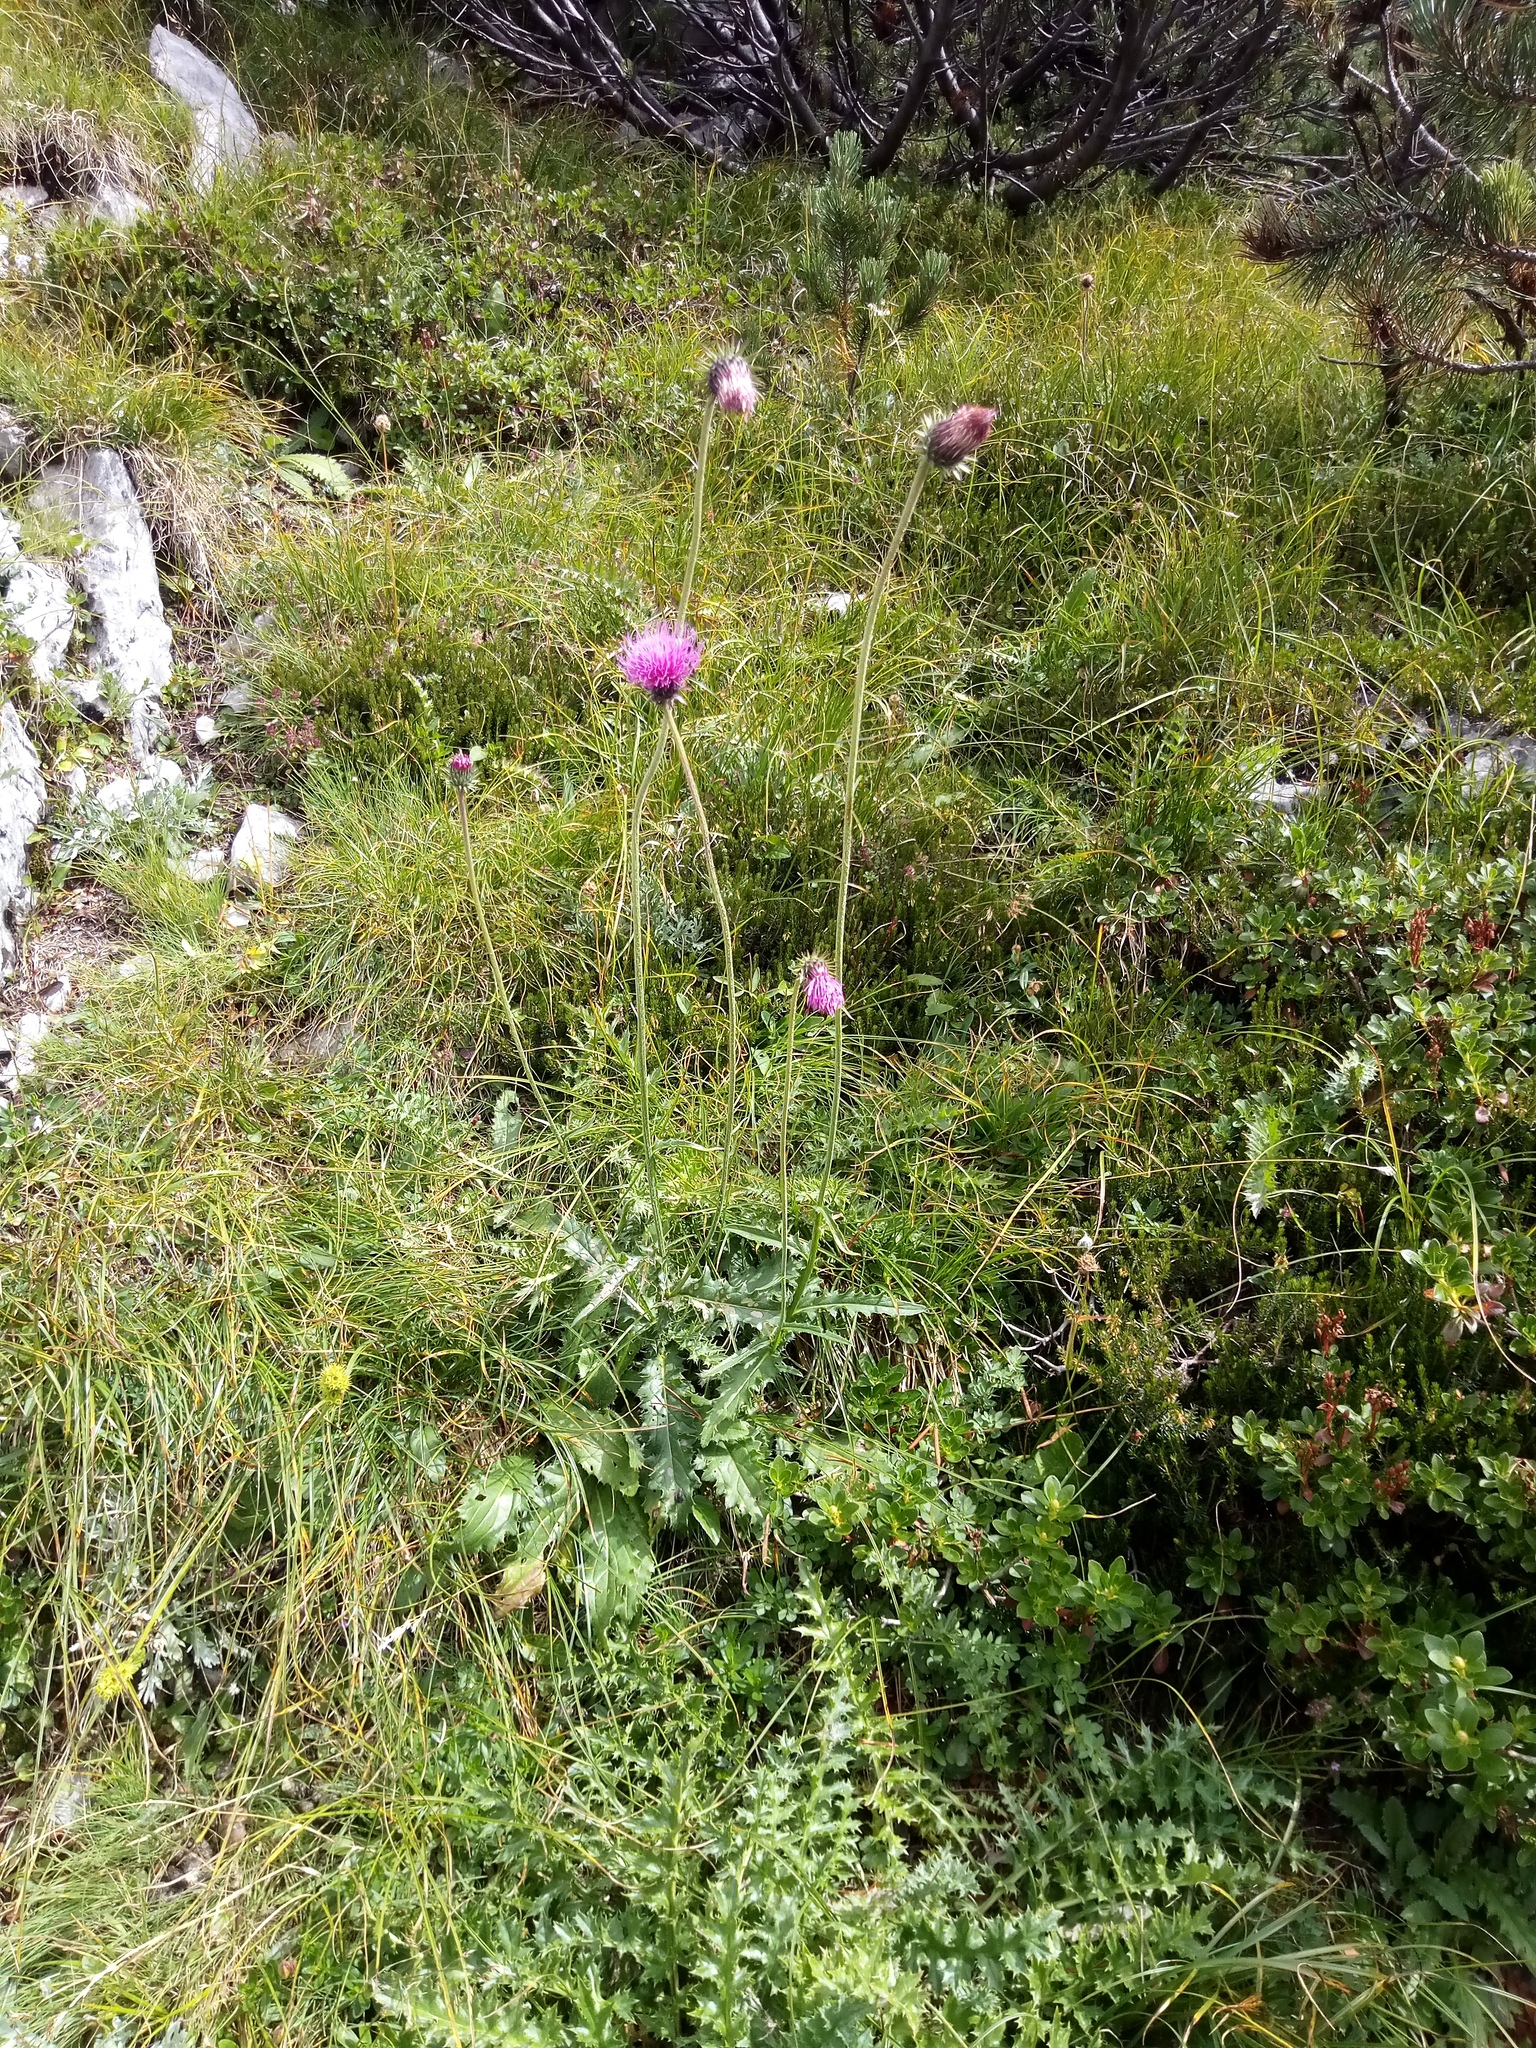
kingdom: Plantae
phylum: Tracheophyta
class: Magnoliopsida
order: Asterales
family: Asteraceae
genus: Carduus
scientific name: Carduus defloratus
